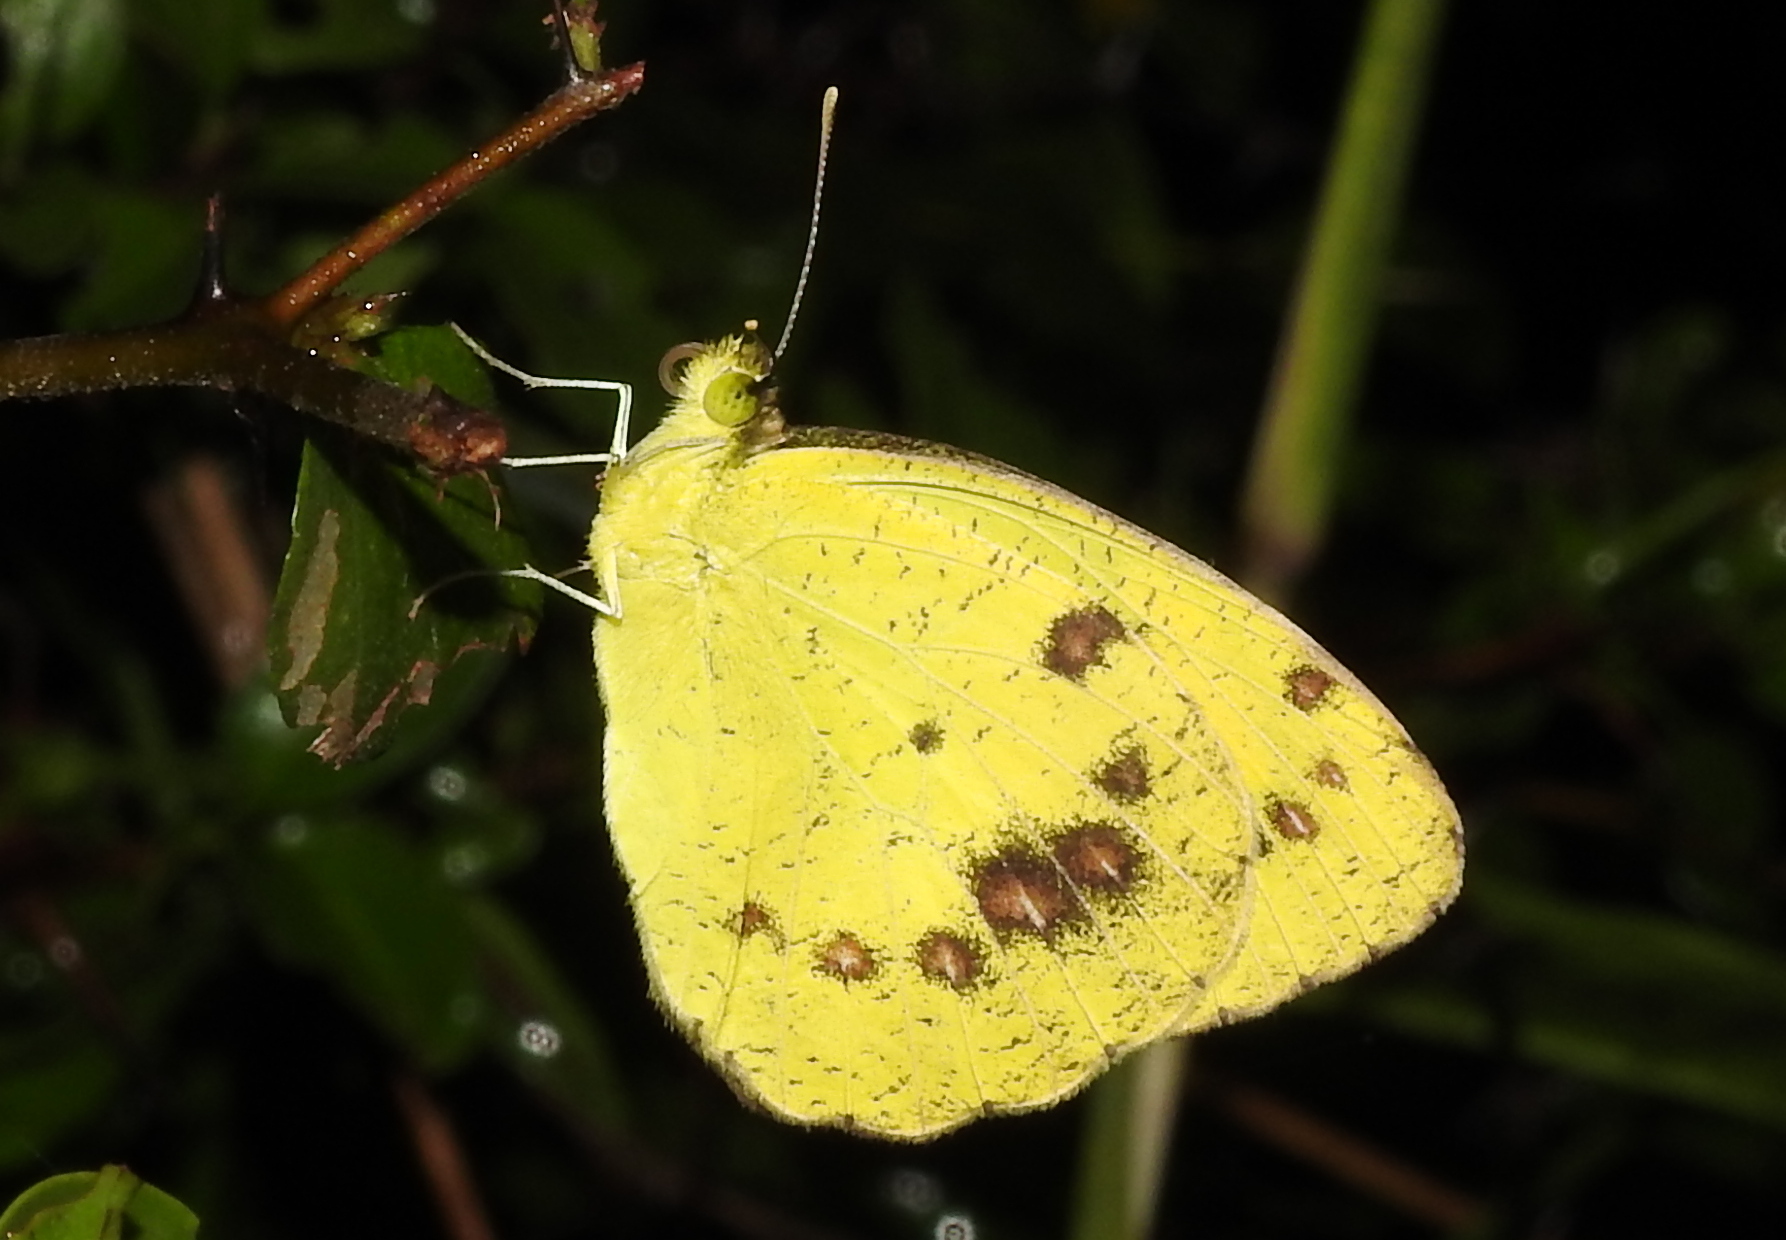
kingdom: Animalia
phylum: Arthropoda
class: Insecta
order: Lepidoptera
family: Pieridae
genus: Ixias
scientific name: Ixias marianne
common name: White orange tip
